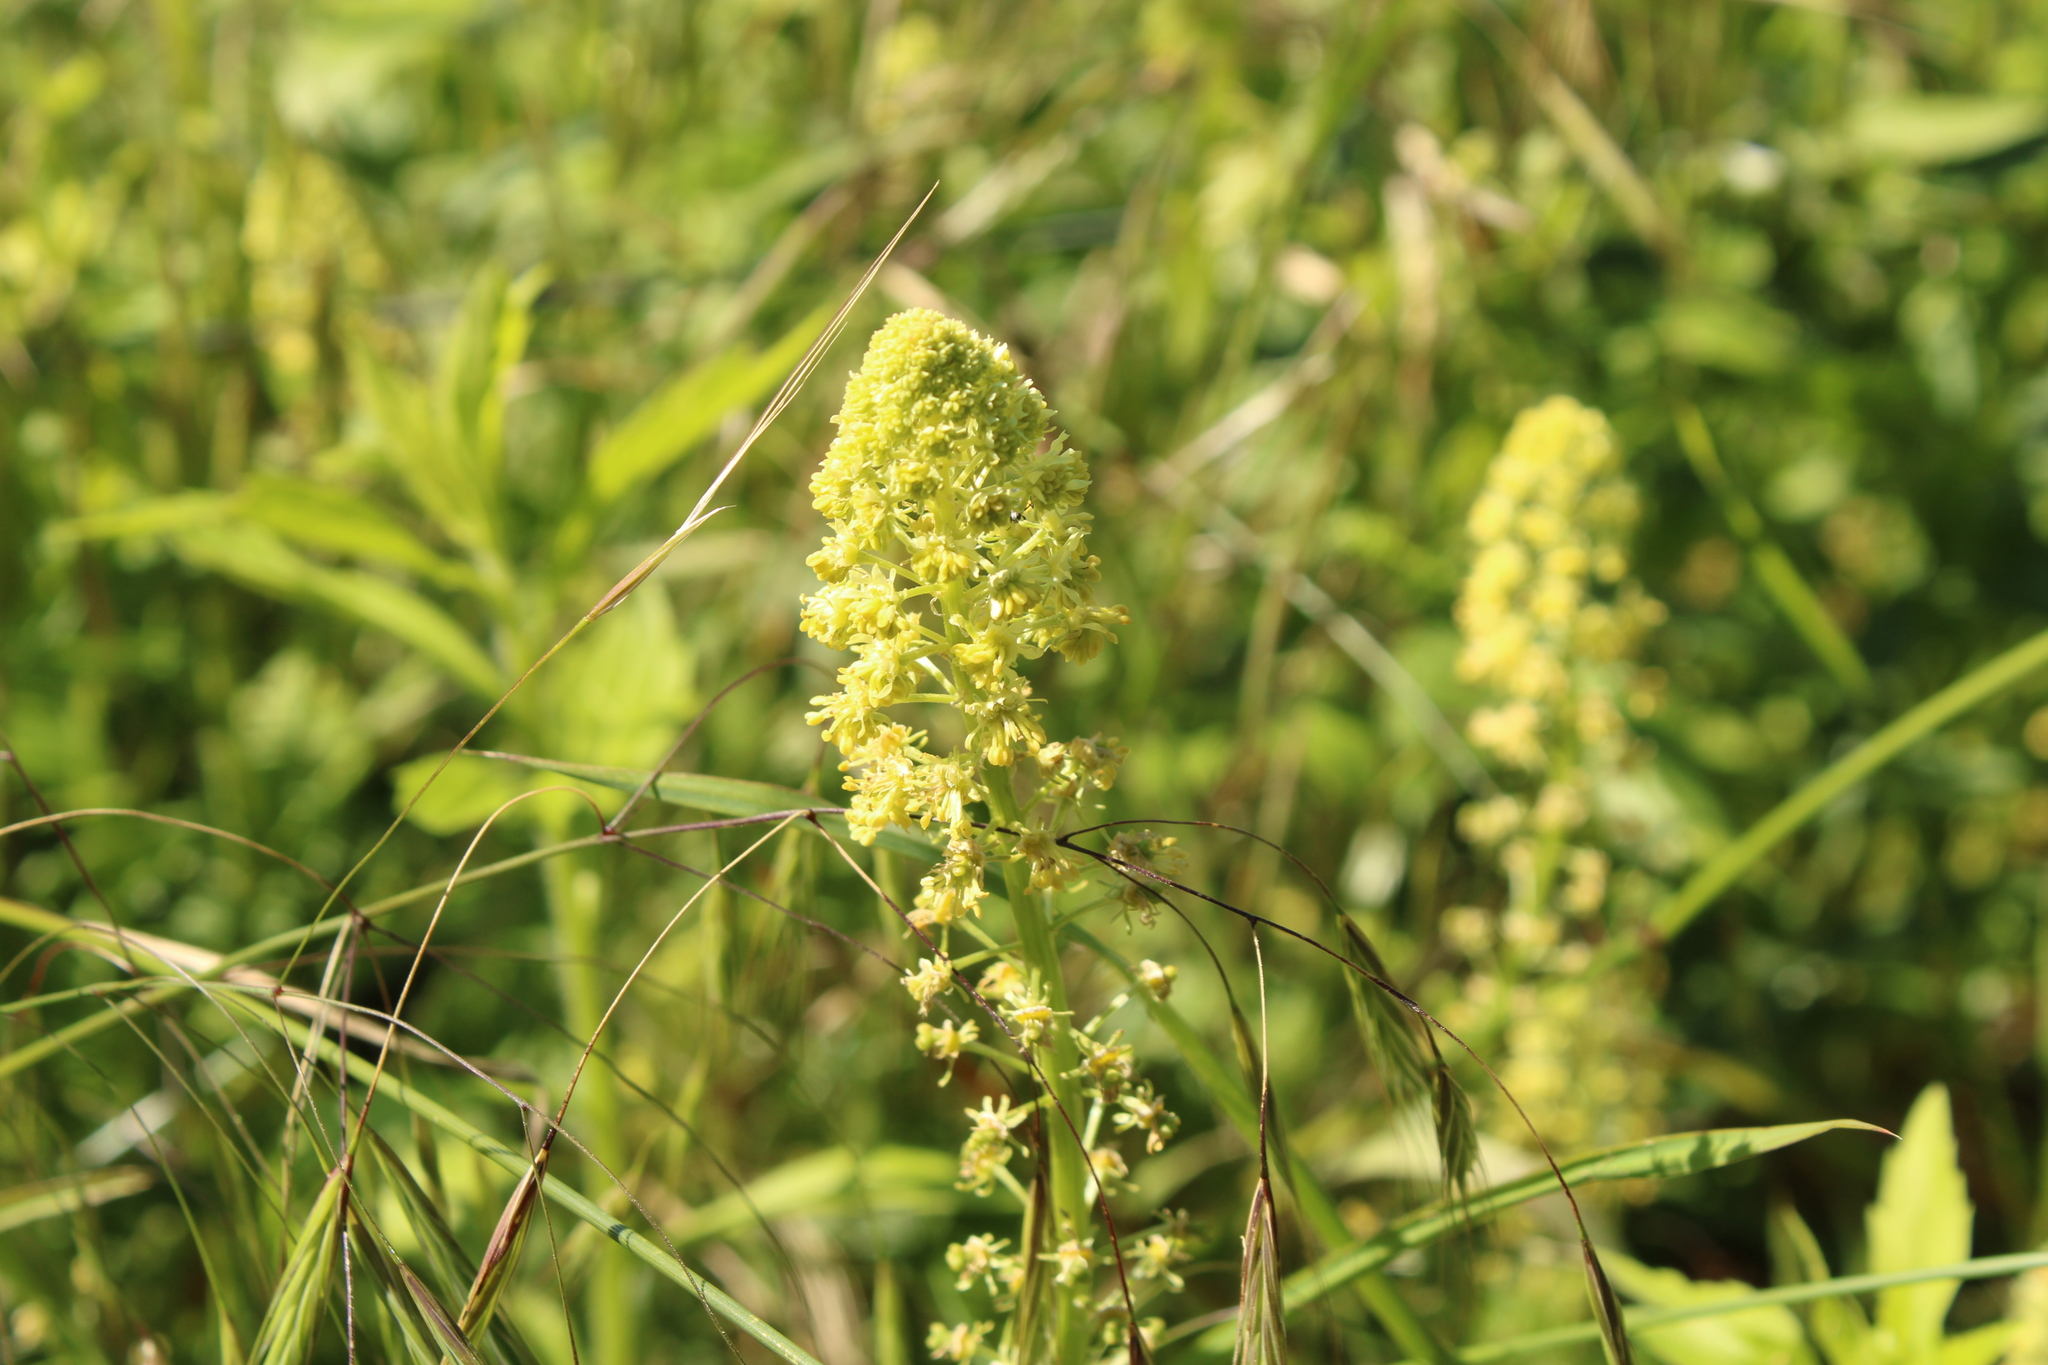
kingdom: Plantae
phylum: Tracheophyta
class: Magnoliopsida
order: Brassicales
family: Resedaceae
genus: Reseda
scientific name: Reseda lutea
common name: Wild mignonette
